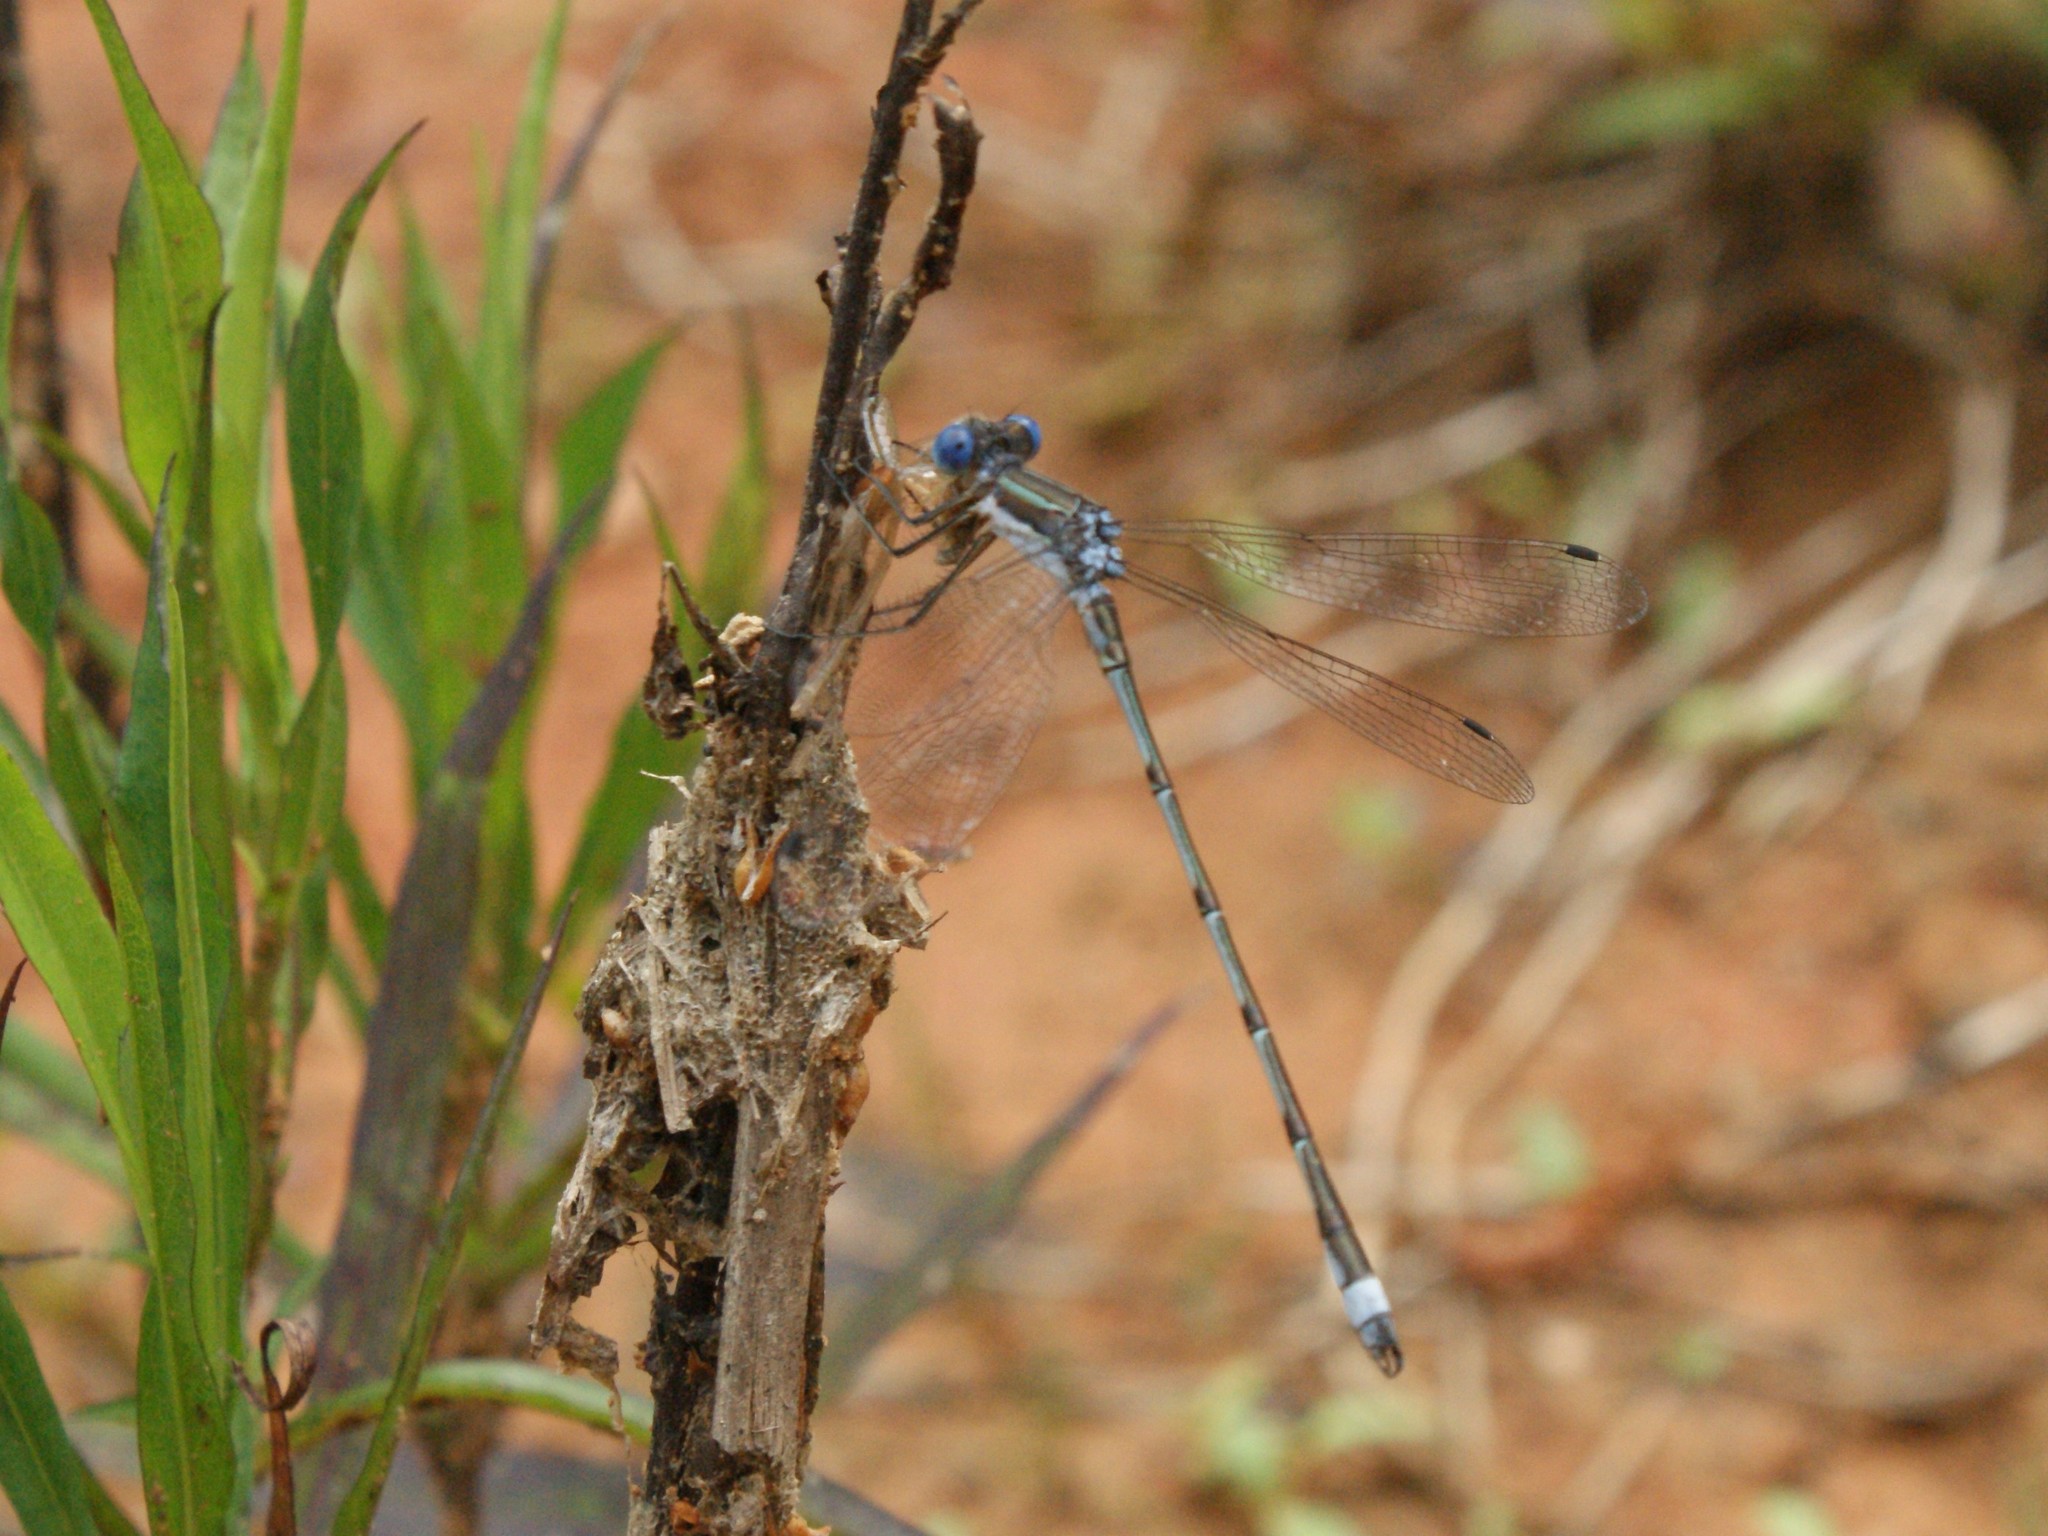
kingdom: Animalia
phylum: Arthropoda
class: Insecta
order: Odonata
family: Lestidae
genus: Lestes
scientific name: Lestes australis
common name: Southern spreadwing
